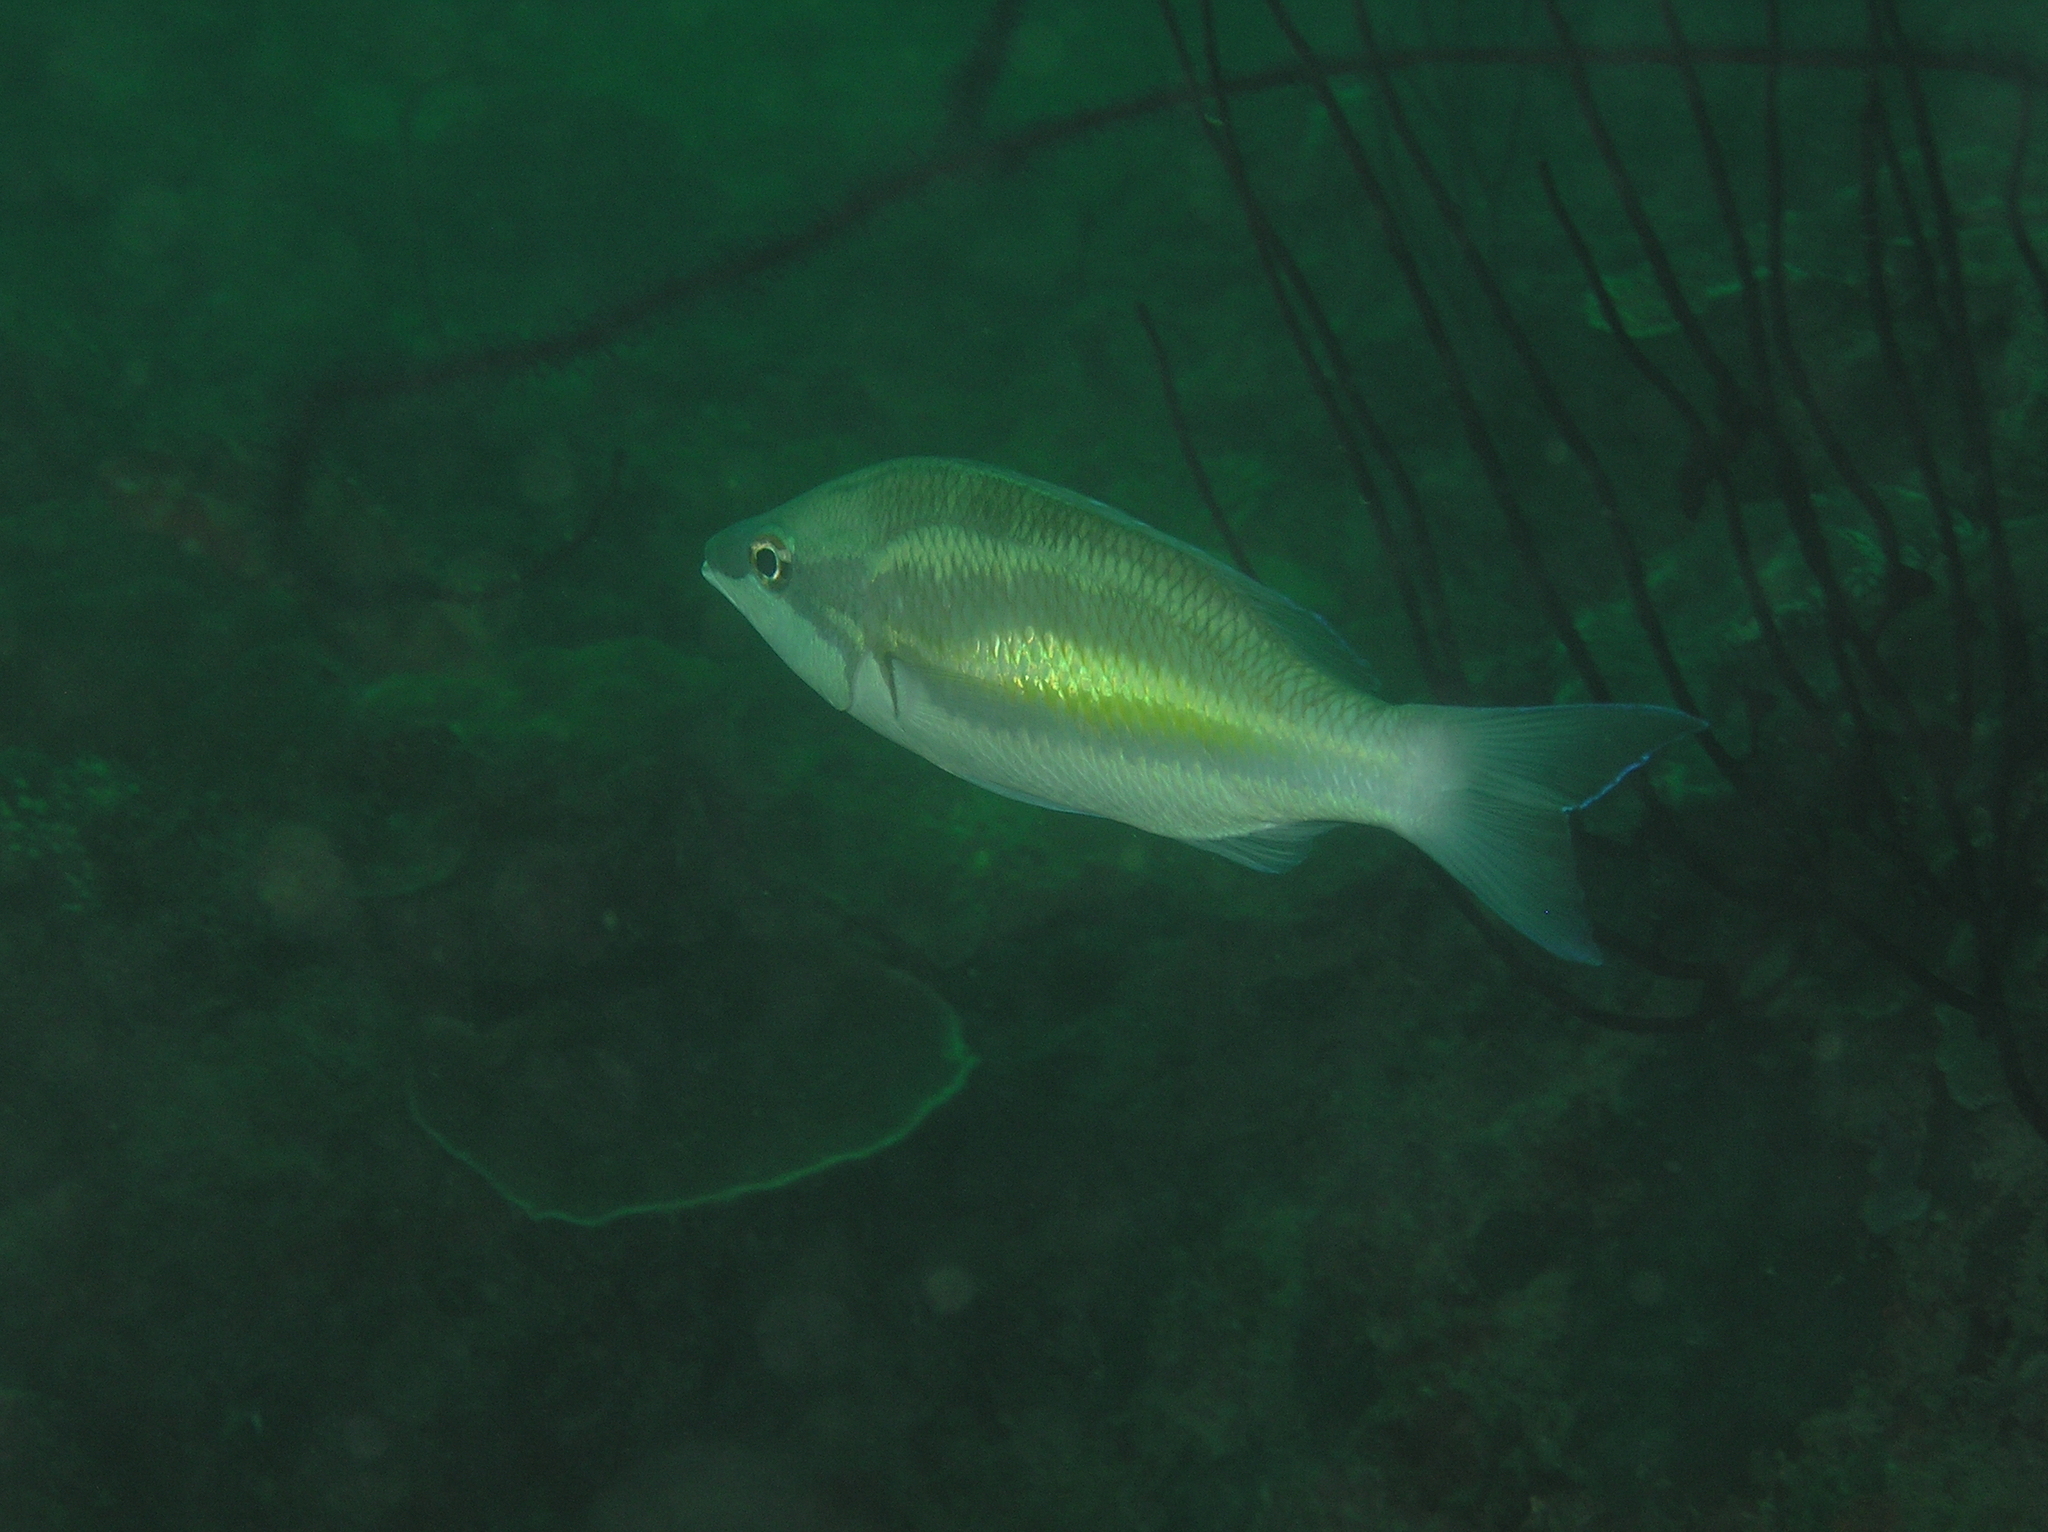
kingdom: Animalia
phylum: Chordata
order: Perciformes
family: Nemipteridae
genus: Pentapodus
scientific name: Pentapodus trivittatus
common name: Three-striped whiptail
